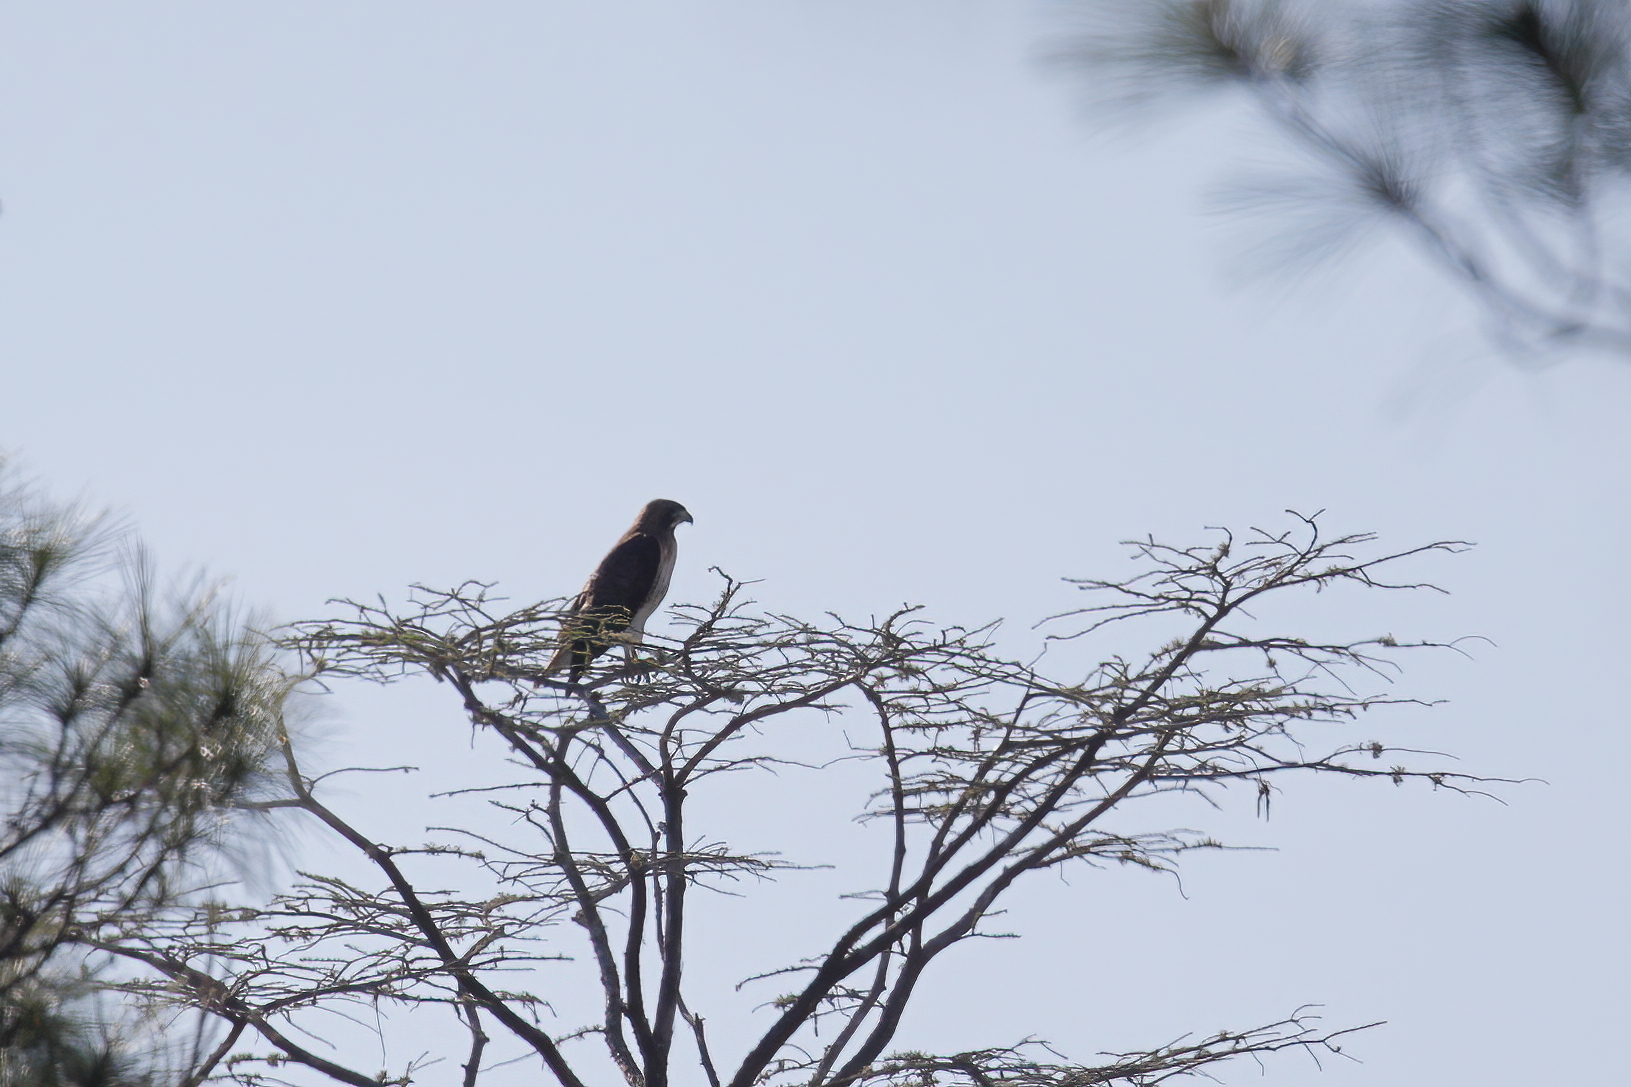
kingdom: Animalia
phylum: Chordata
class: Aves
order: Accipitriformes
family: Accipitridae
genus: Buteo
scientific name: Buteo jamaicensis
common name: Red-tailed hawk
